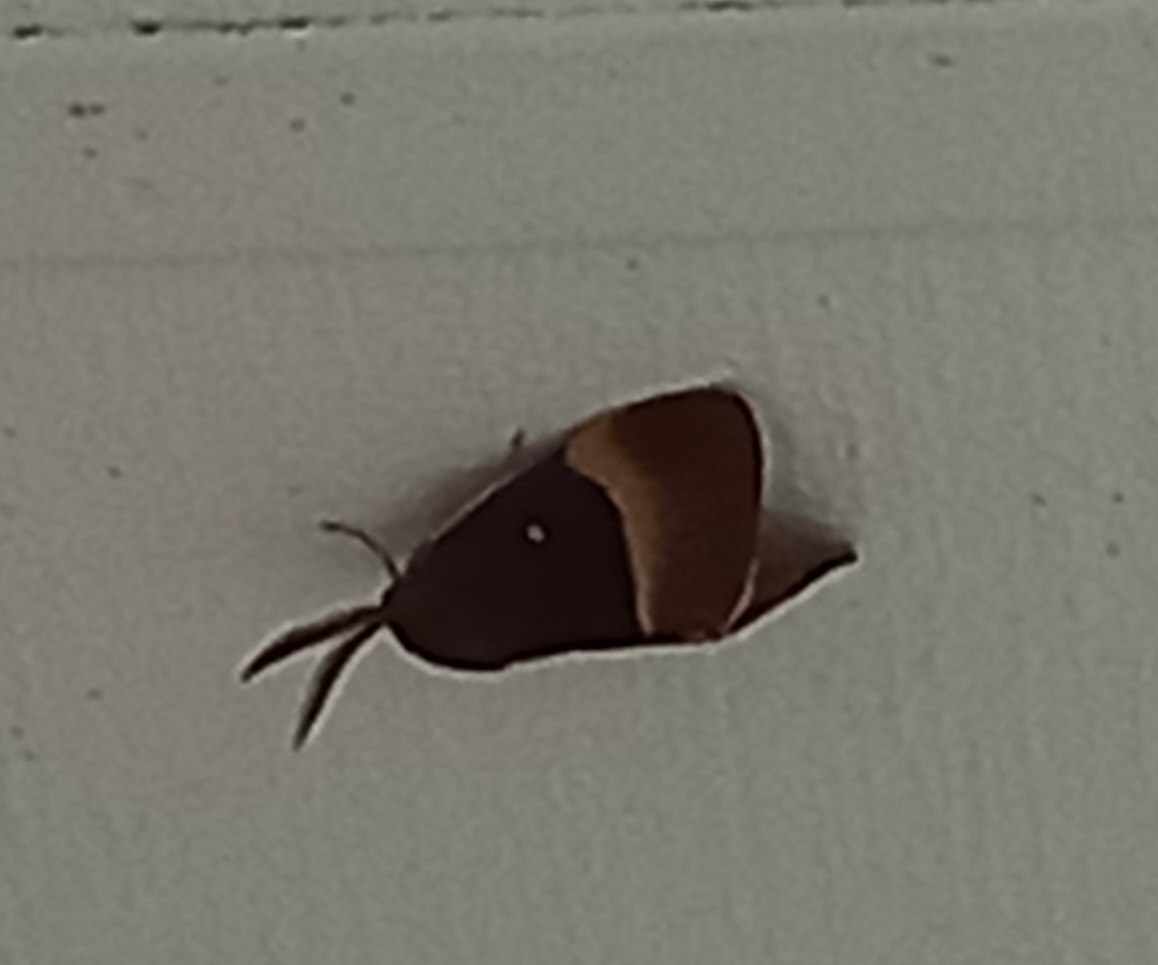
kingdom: Animalia
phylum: Arthropoda
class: Insecta
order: Lepidoptera
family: Lasiocampidae
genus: Lasiocampa
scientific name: Lasiocampa quercus
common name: Oak eggar
